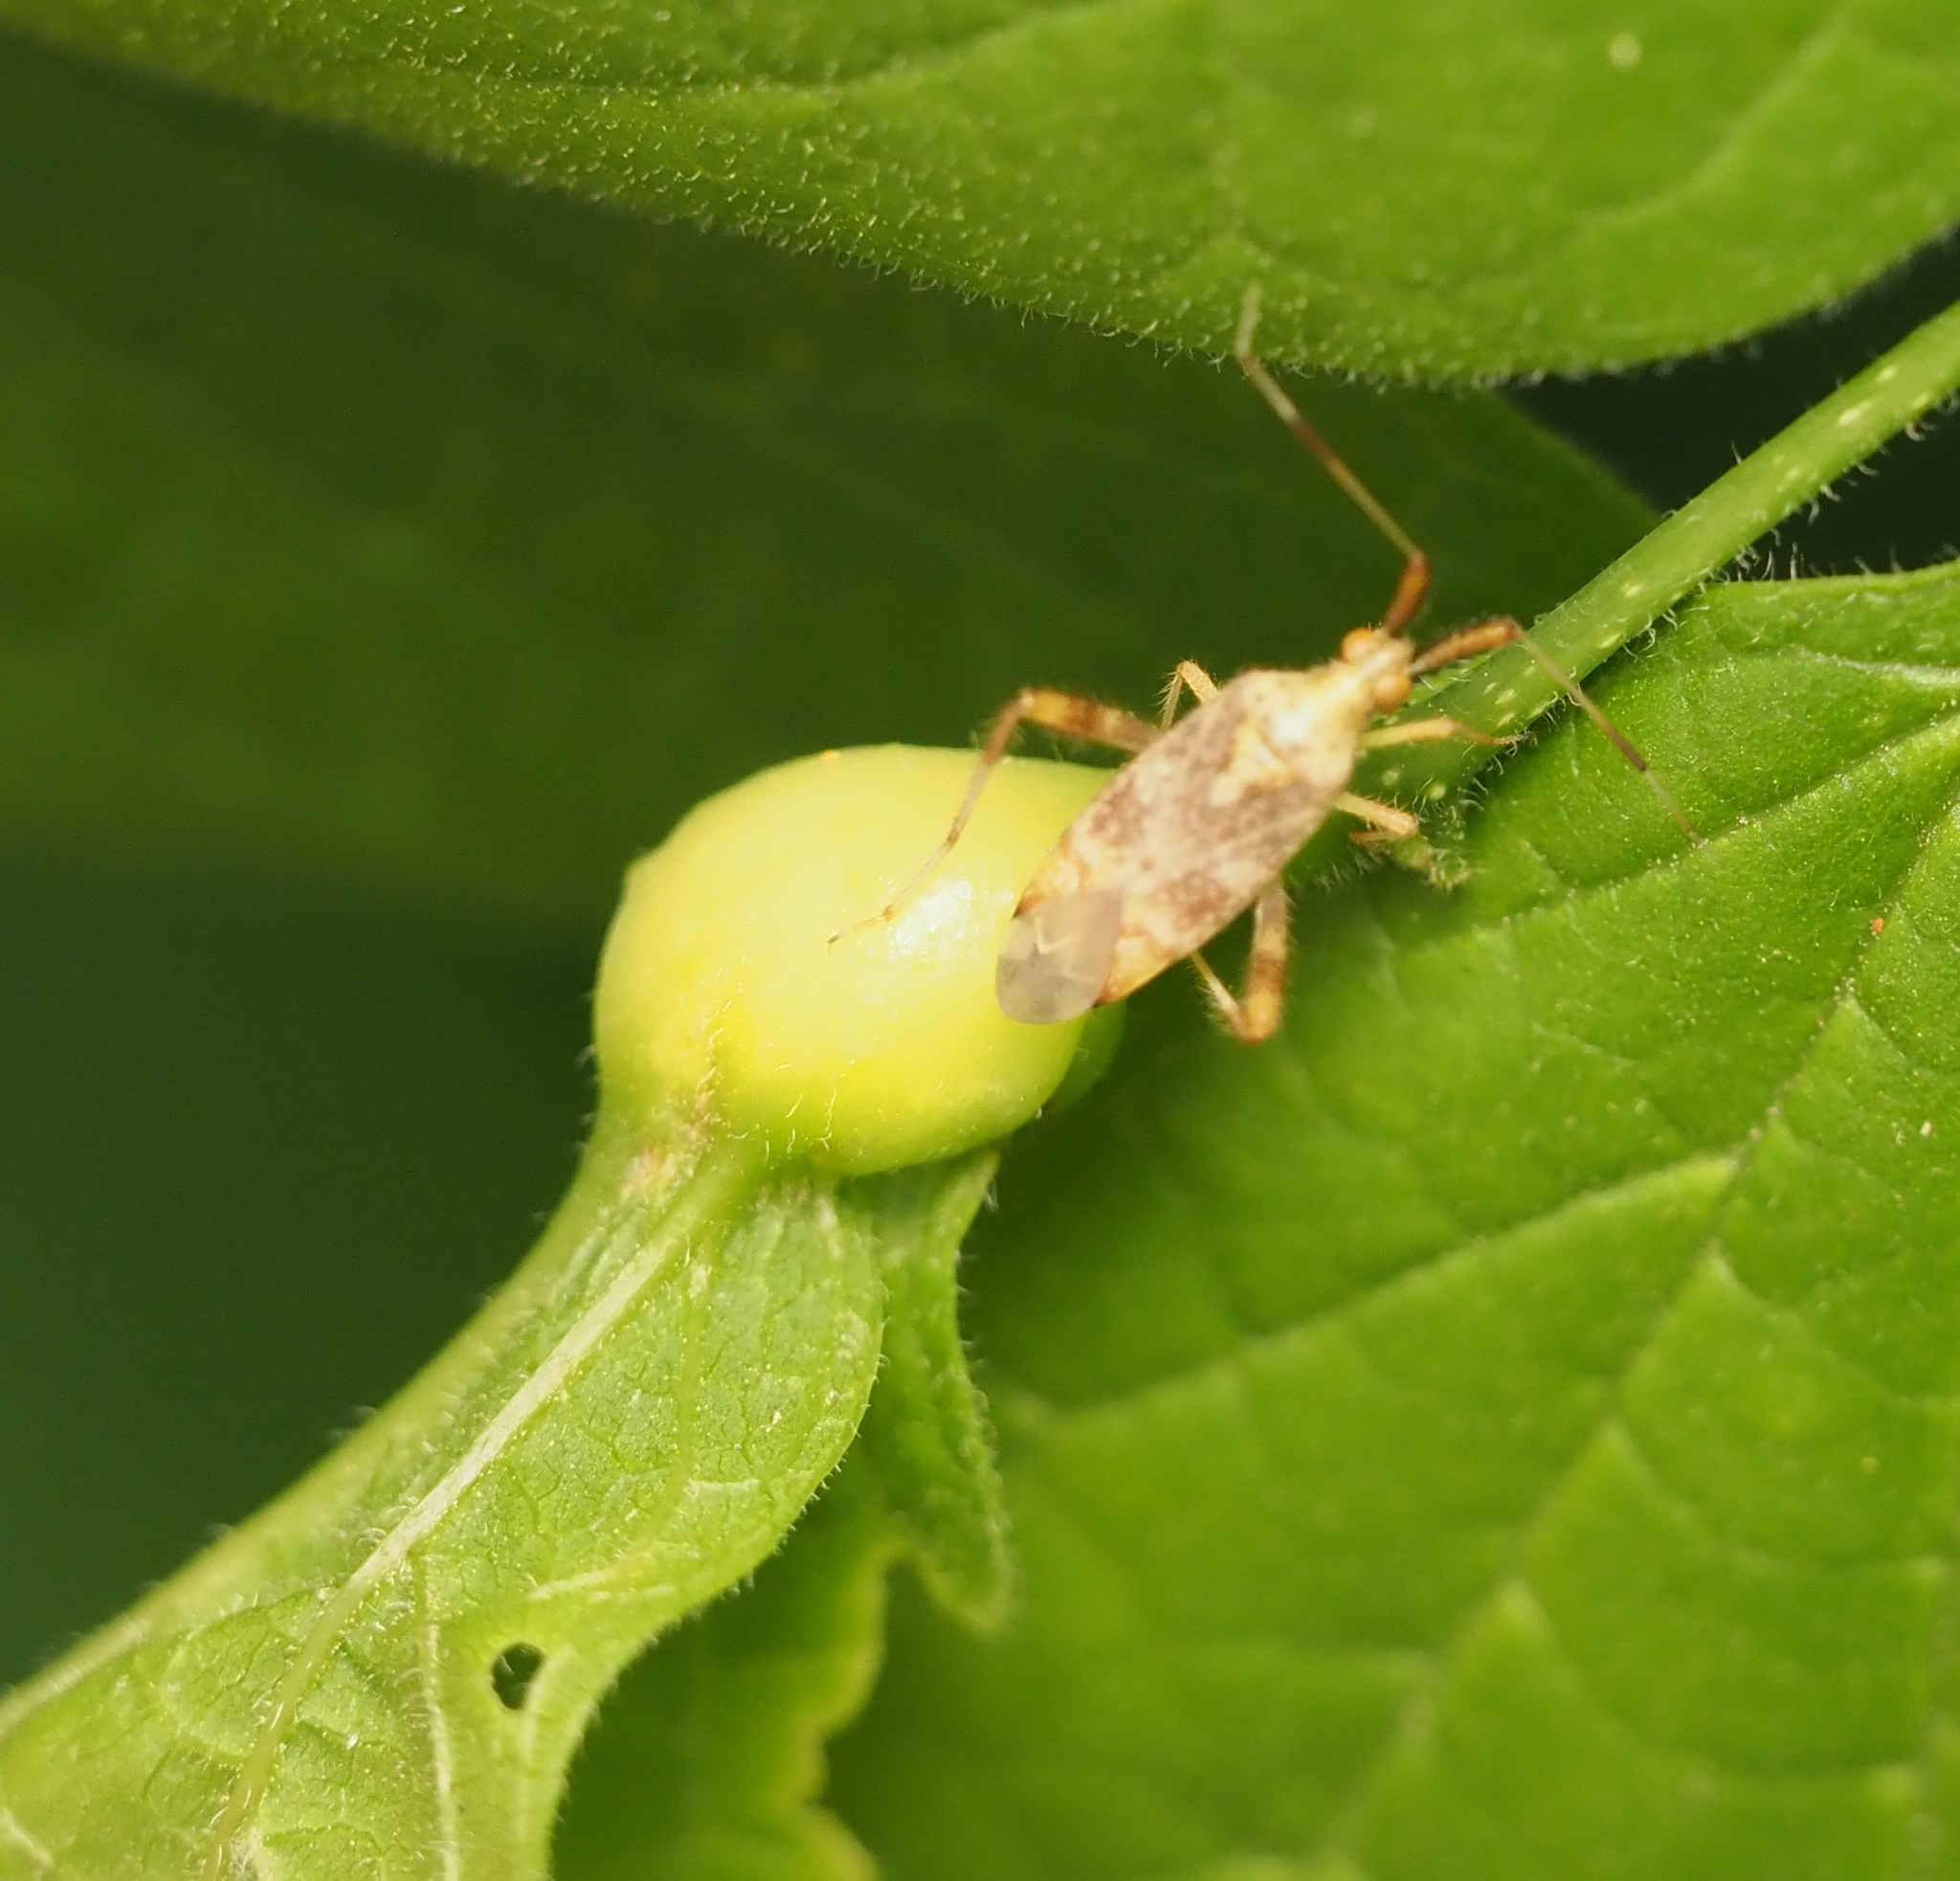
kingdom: Animalia
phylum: Arthropoda
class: Insecta
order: Hemiptera
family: Aphalaridae
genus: Pachypsylla
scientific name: Pachypsylla venusta
